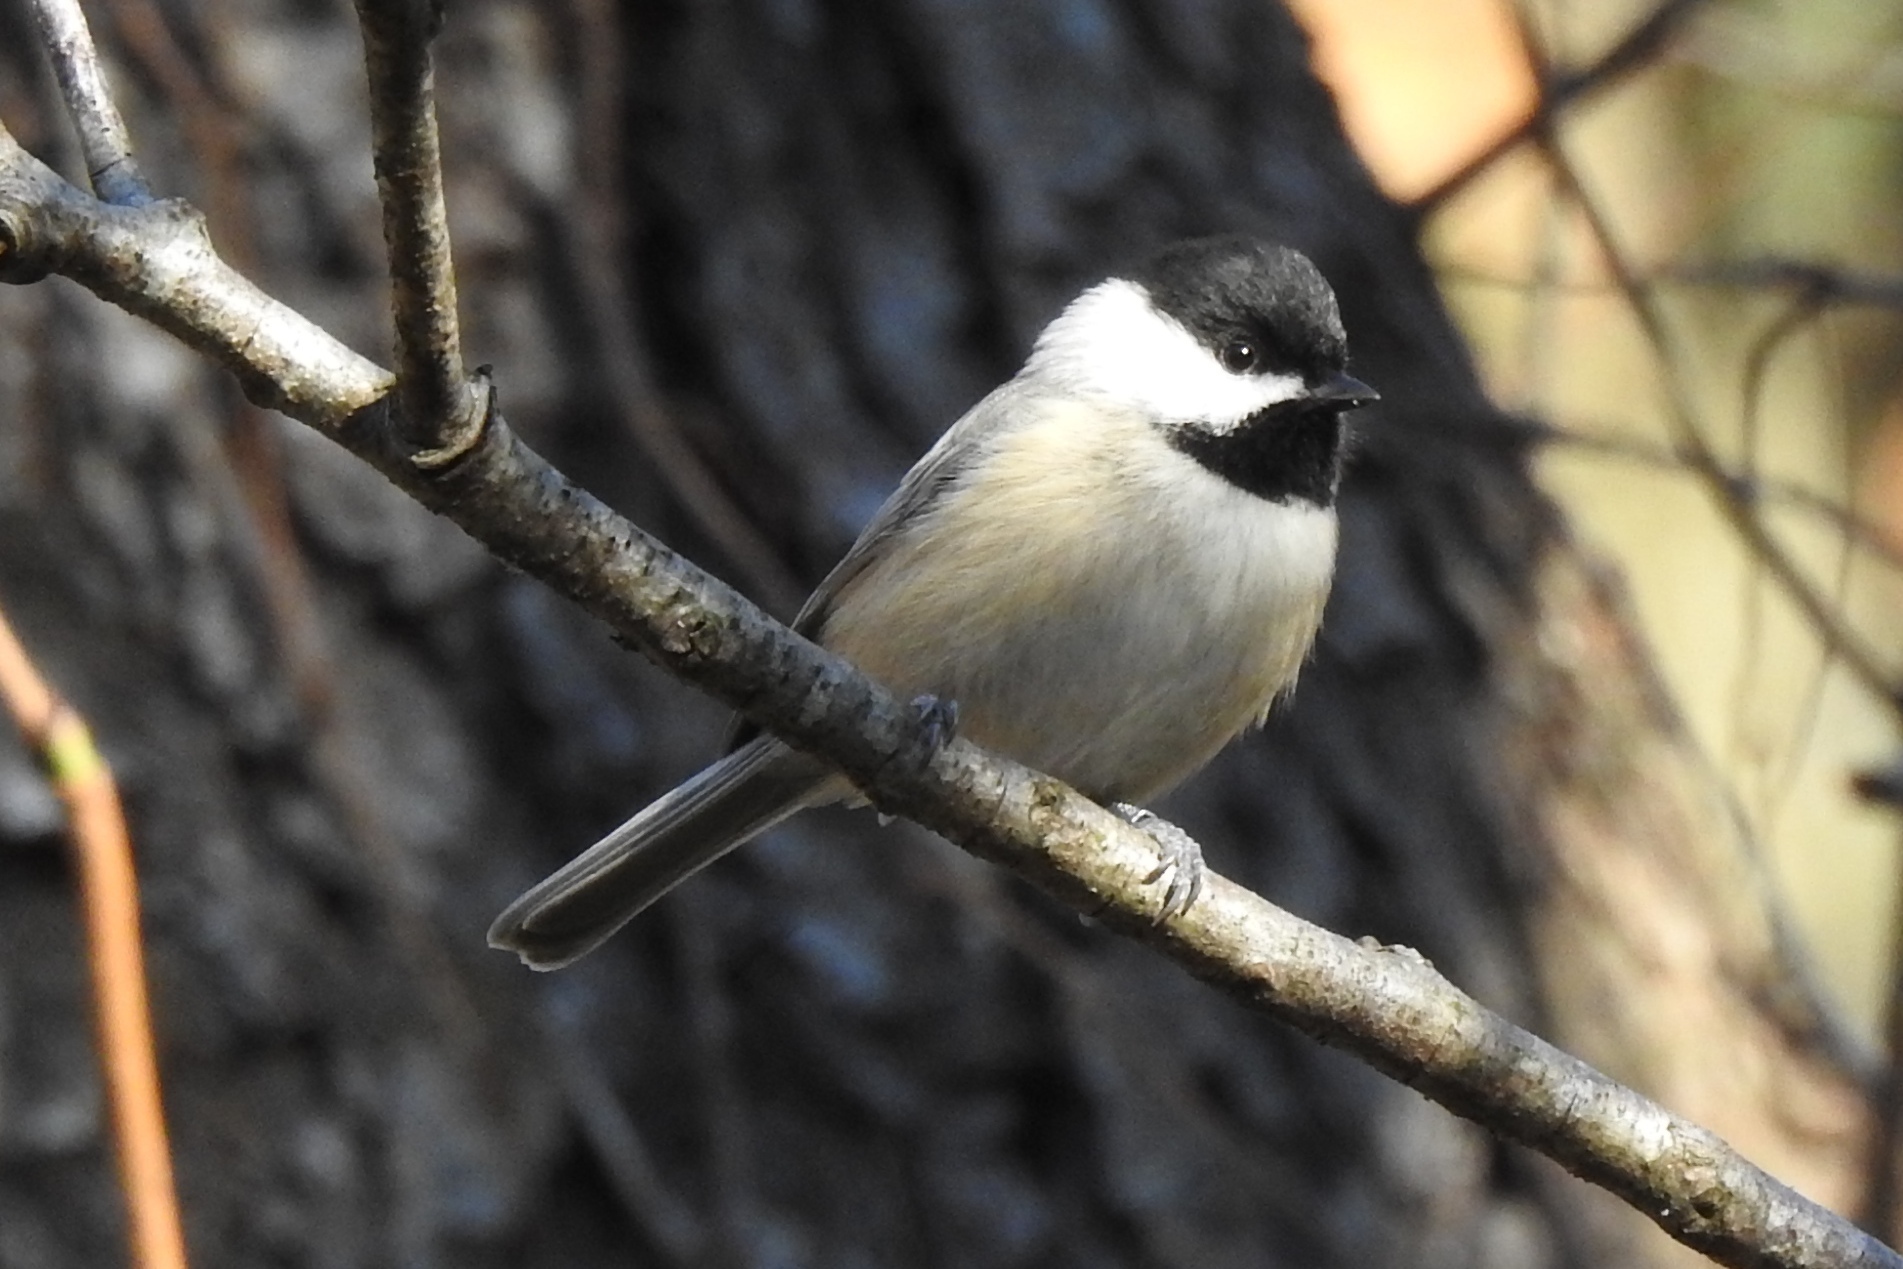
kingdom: Animalia
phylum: Chordata
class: Aves
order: Passeriformes
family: Paridae
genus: Poecile
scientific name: Poecile carolinensis
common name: Carolina chickadee
